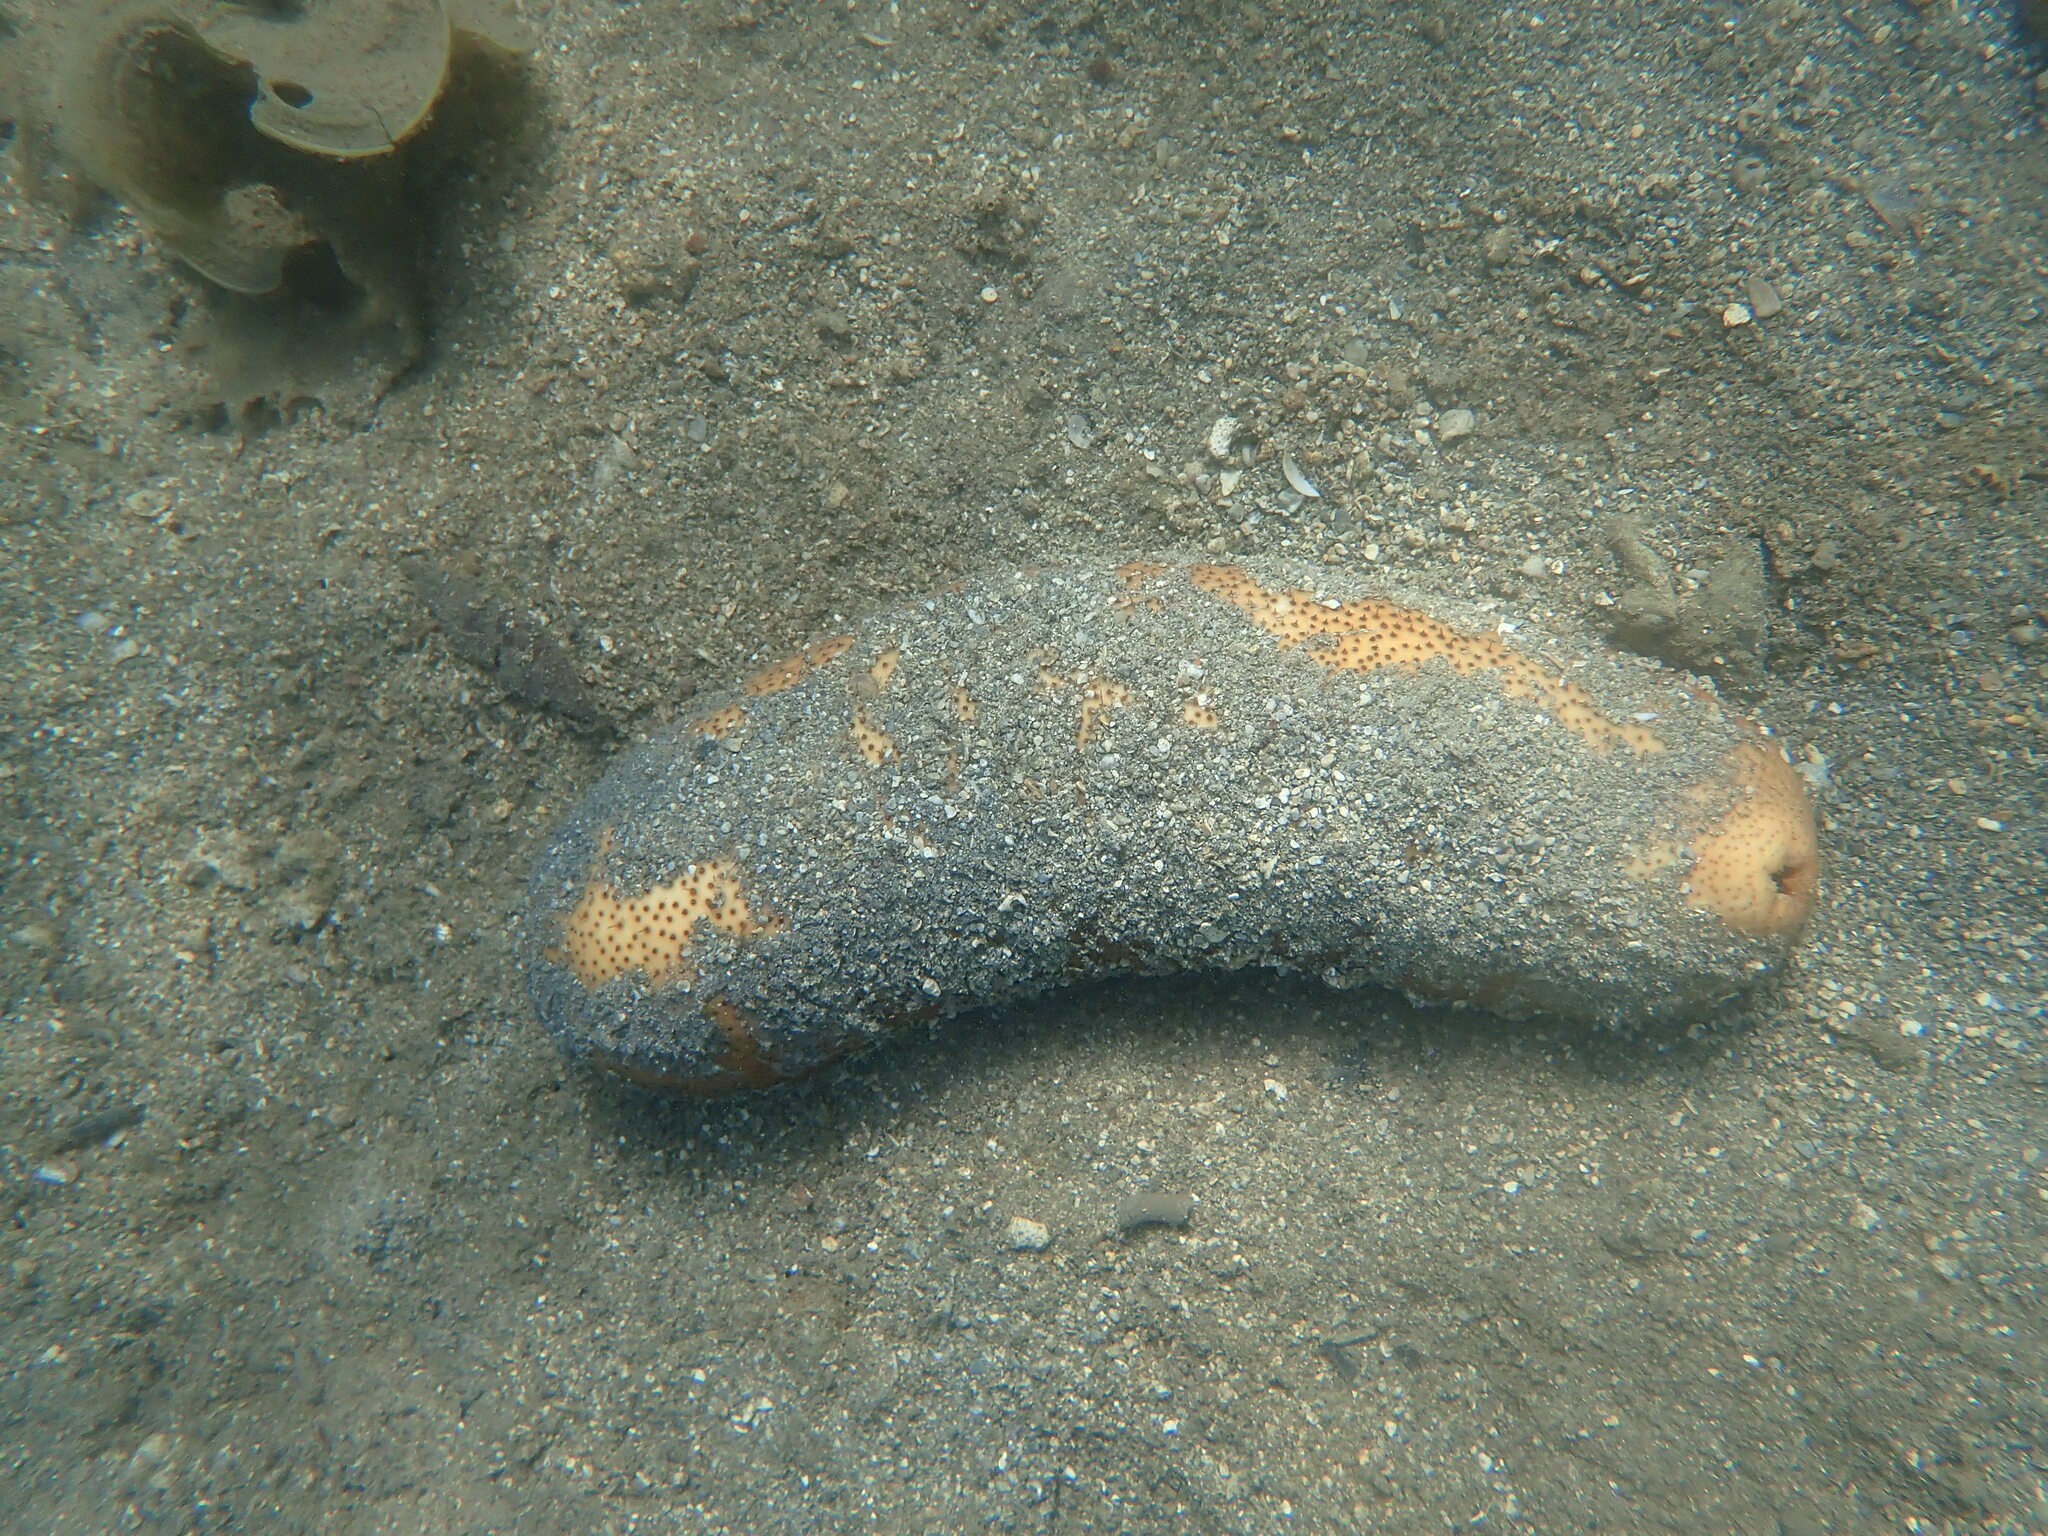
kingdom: Animalia
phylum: Echinodermata
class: Holothuroidea
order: Holothuriida
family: Holothuriidae
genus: Bohadschia
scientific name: Bohadschia vitiensis
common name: Brown sandfish
